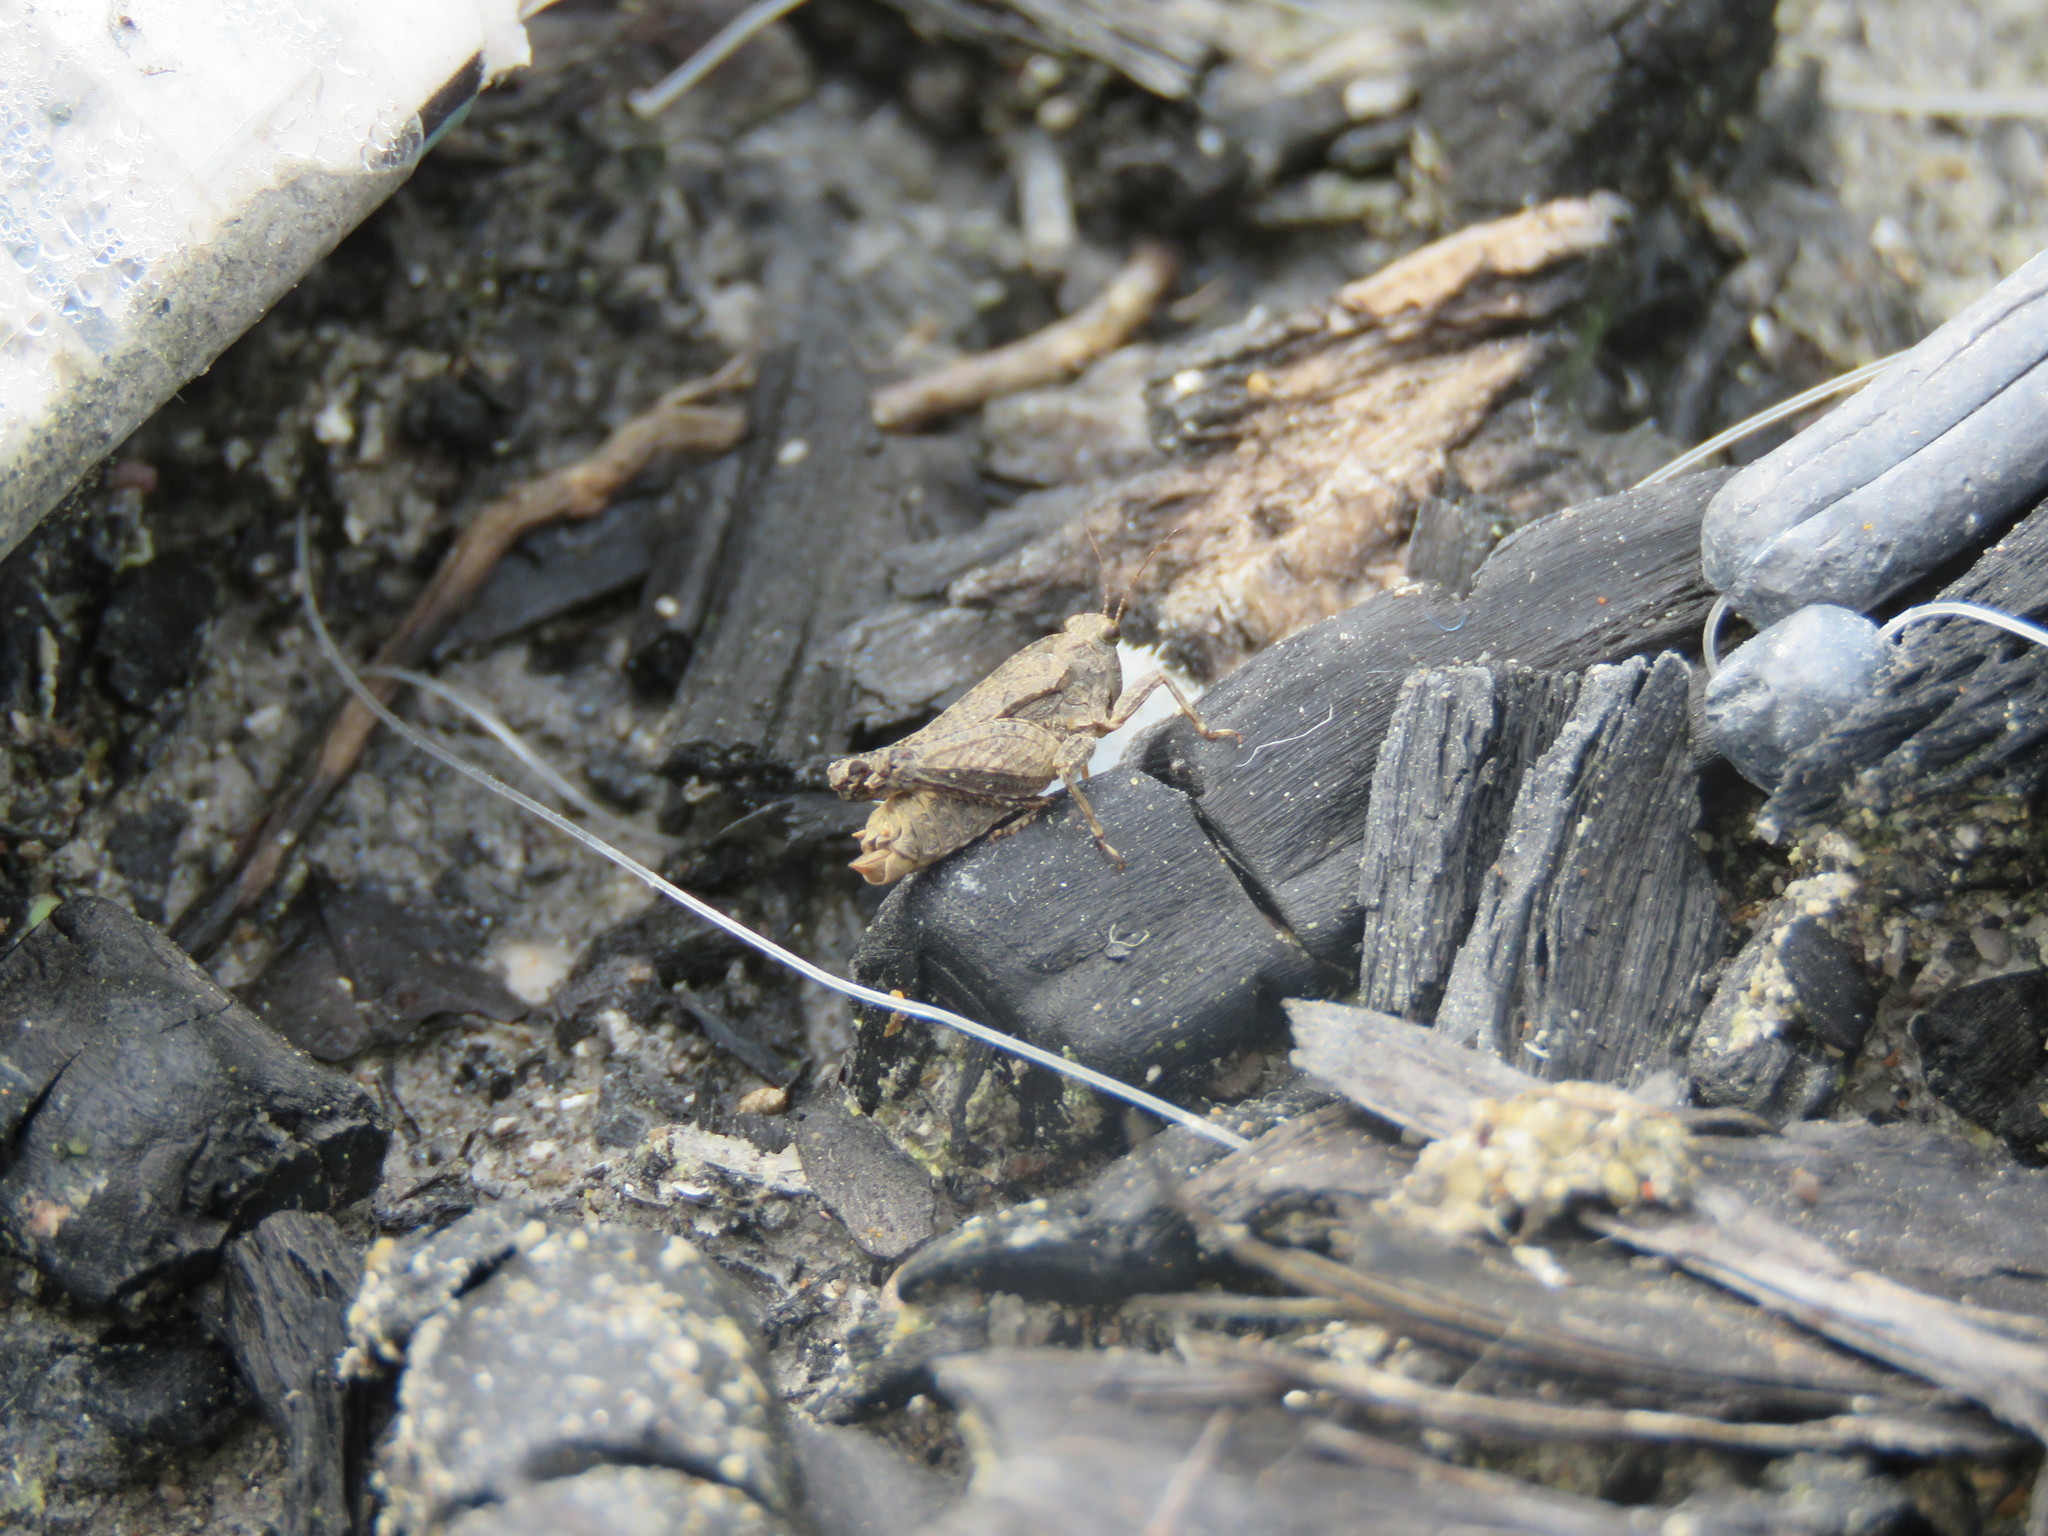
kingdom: Animalia
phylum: Arthropoda
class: Insecta
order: Orthoptera
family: Tetrigidae
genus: Tetrix
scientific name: Tetrix tenuicornis
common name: Long-horned groundhopper
